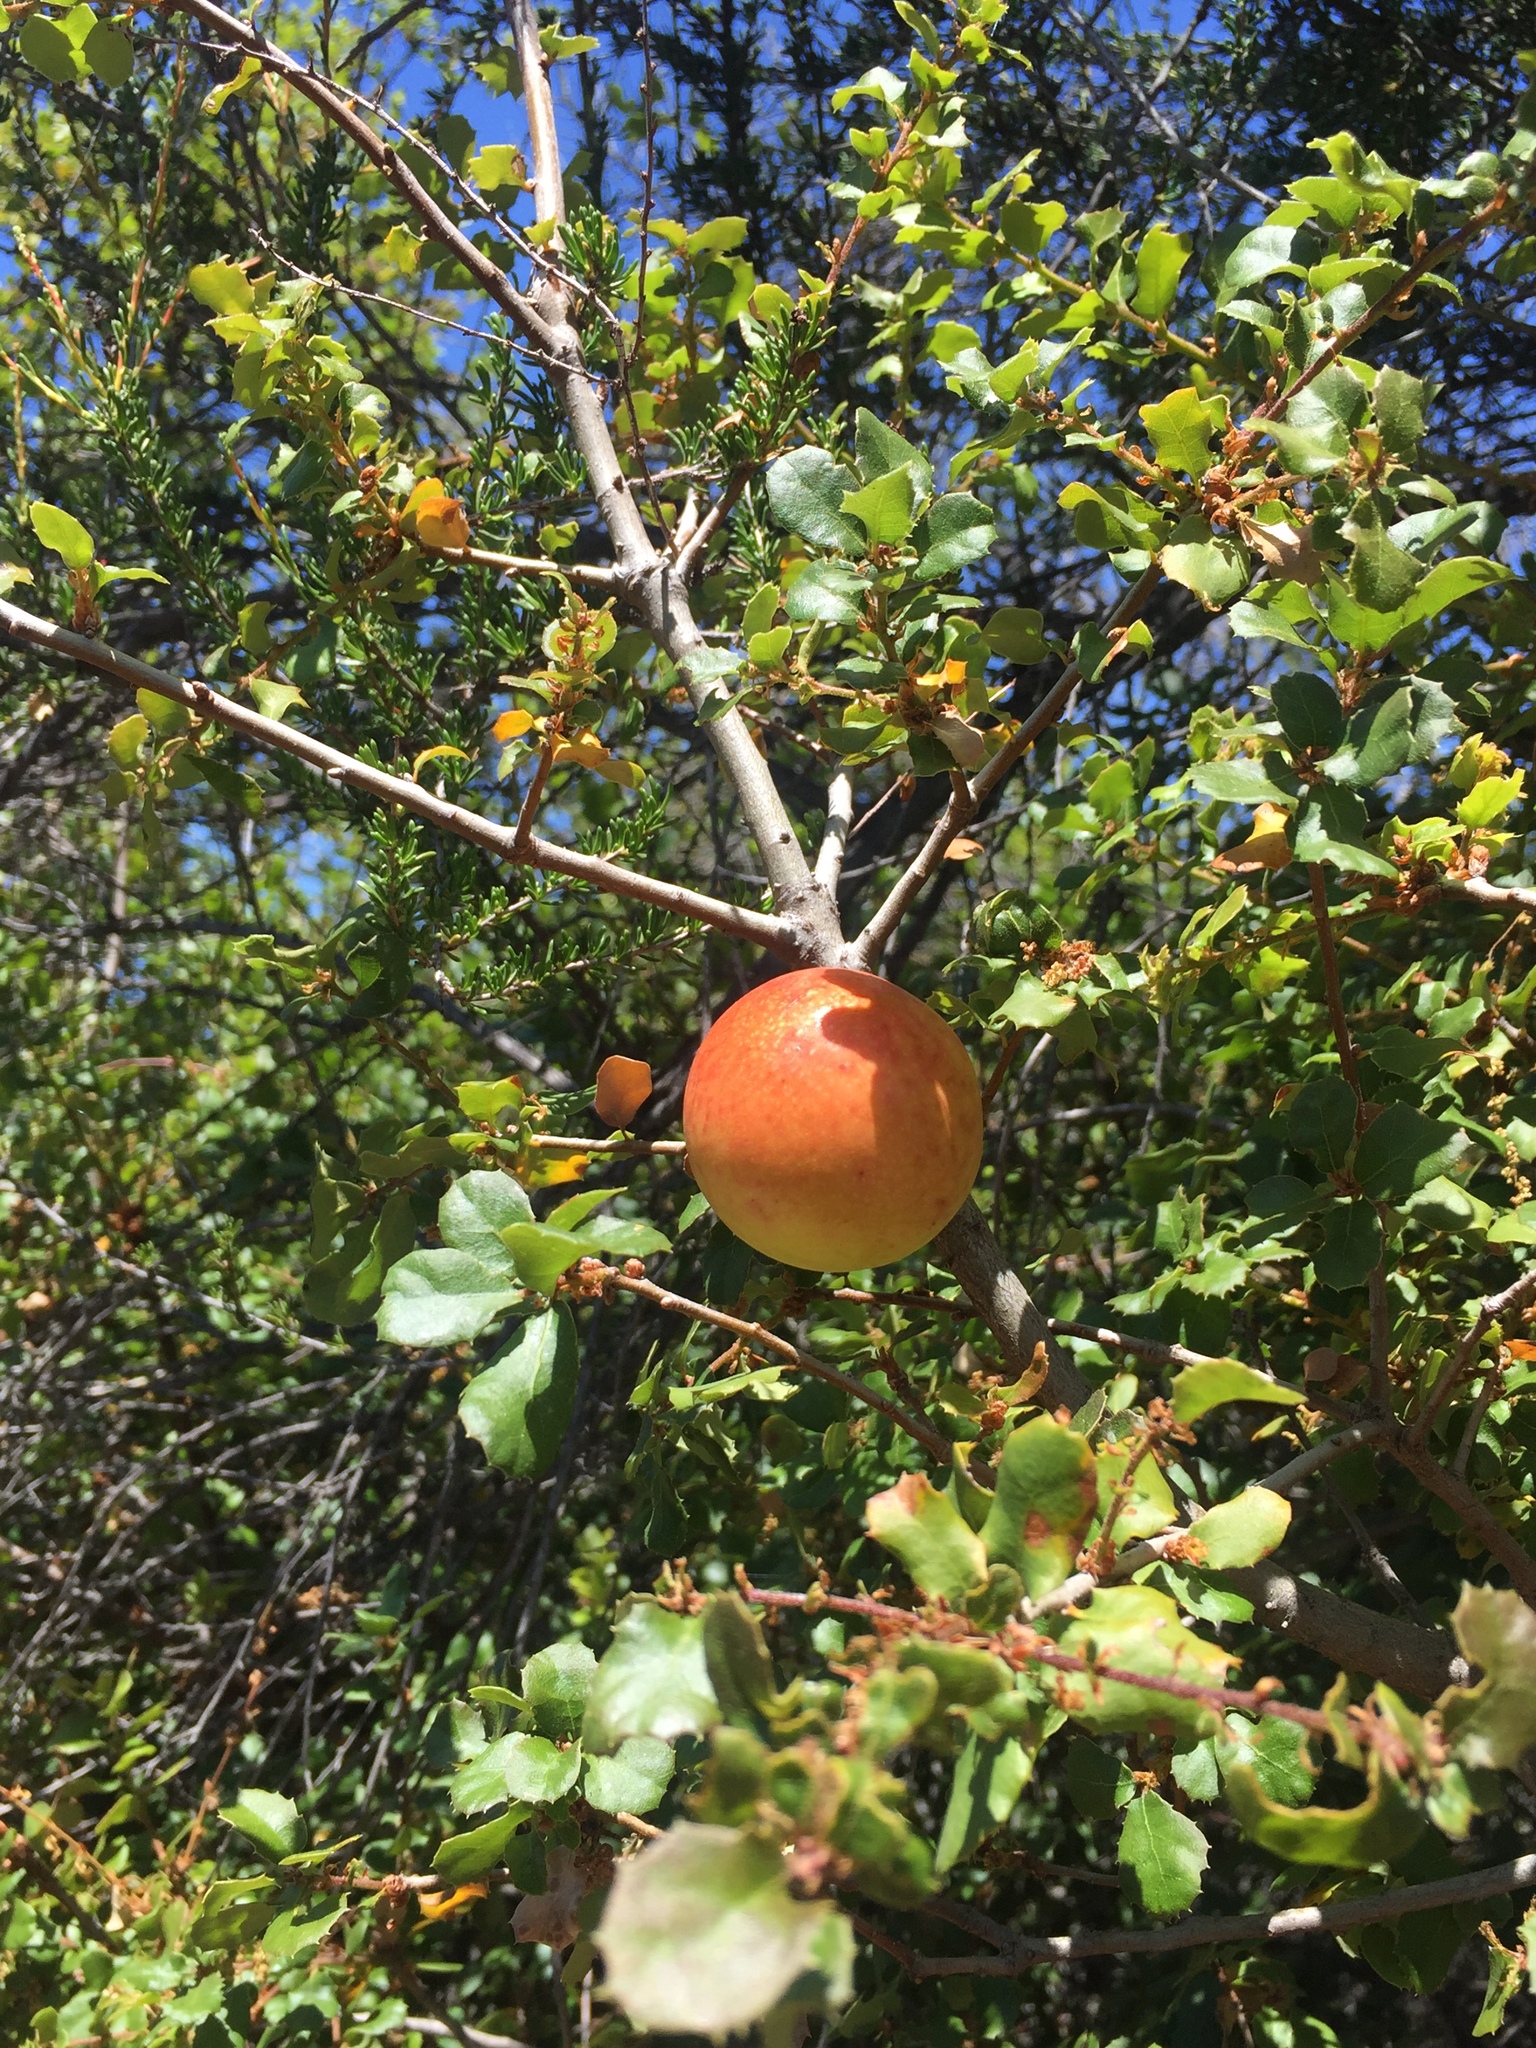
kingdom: Animalia
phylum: Arthropoda
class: Insecta
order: Hymenoptera
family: Cynipidae
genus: Andricus
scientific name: Andricus quercuscalifornicus
